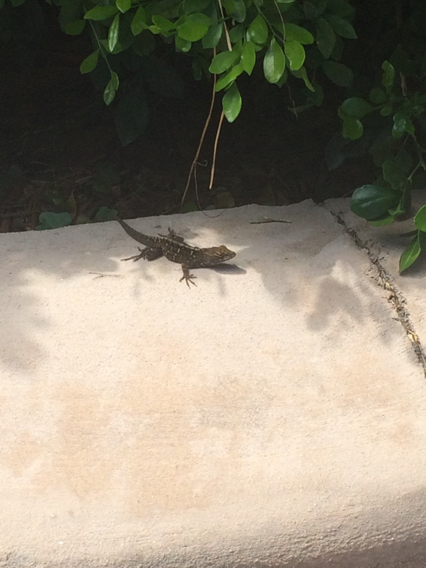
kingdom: Animalia
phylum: Chordata
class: Squamata
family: Dactyloidae
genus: Anolis
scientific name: Anolis sagrei
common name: Brown anole
